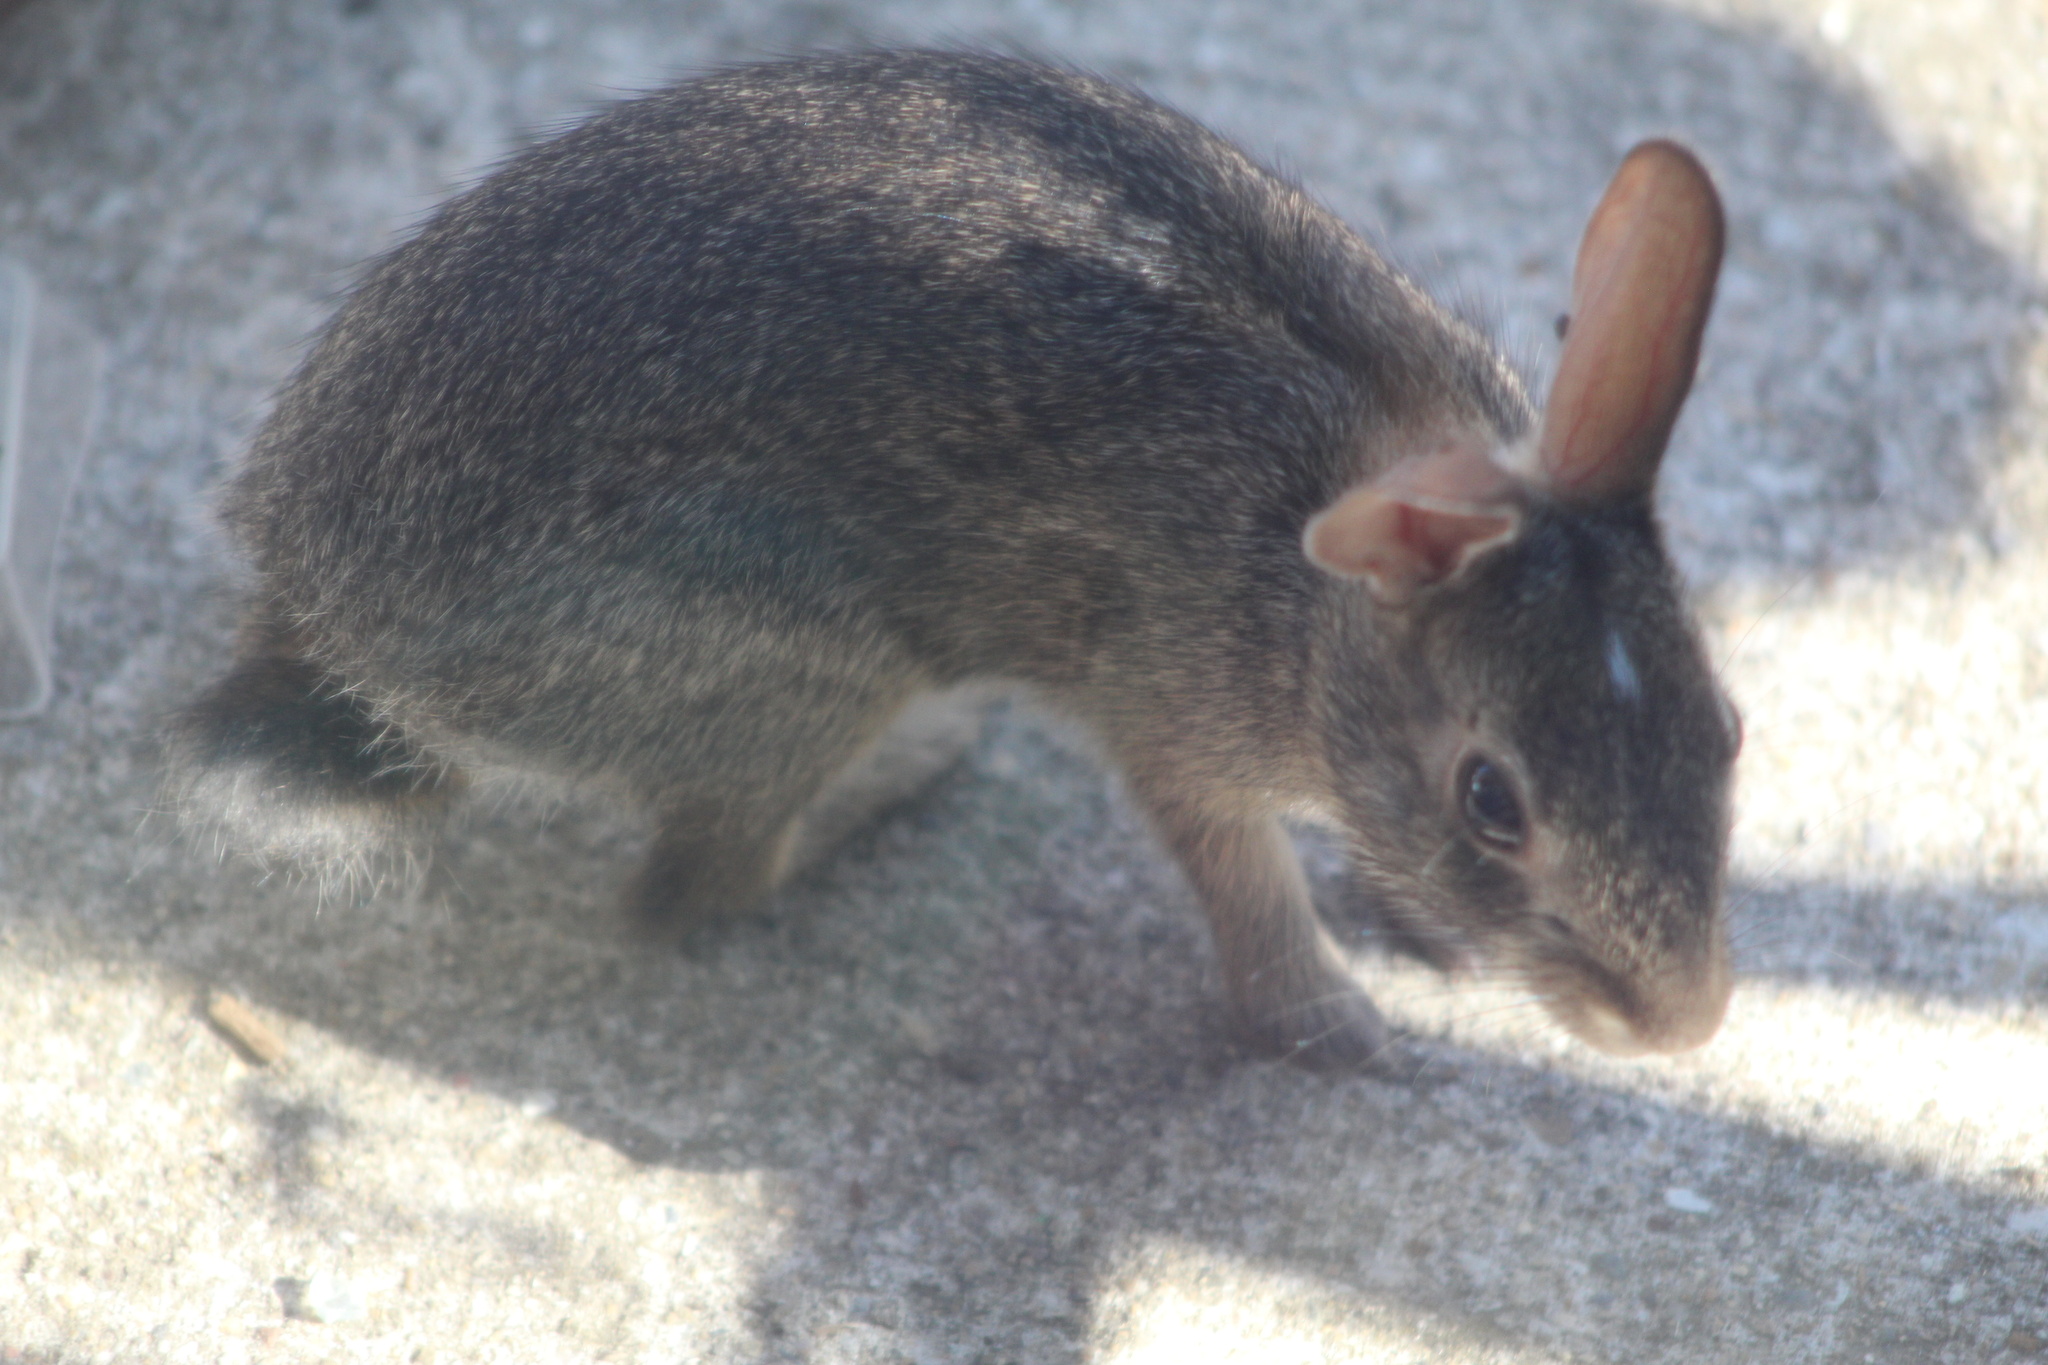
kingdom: Animalia
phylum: Chordata
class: Mammalia
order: Lagomorpha
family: Leporidae
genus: Sylvilagus
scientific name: Sylvilagus floridanus
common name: Eastern cottontail
